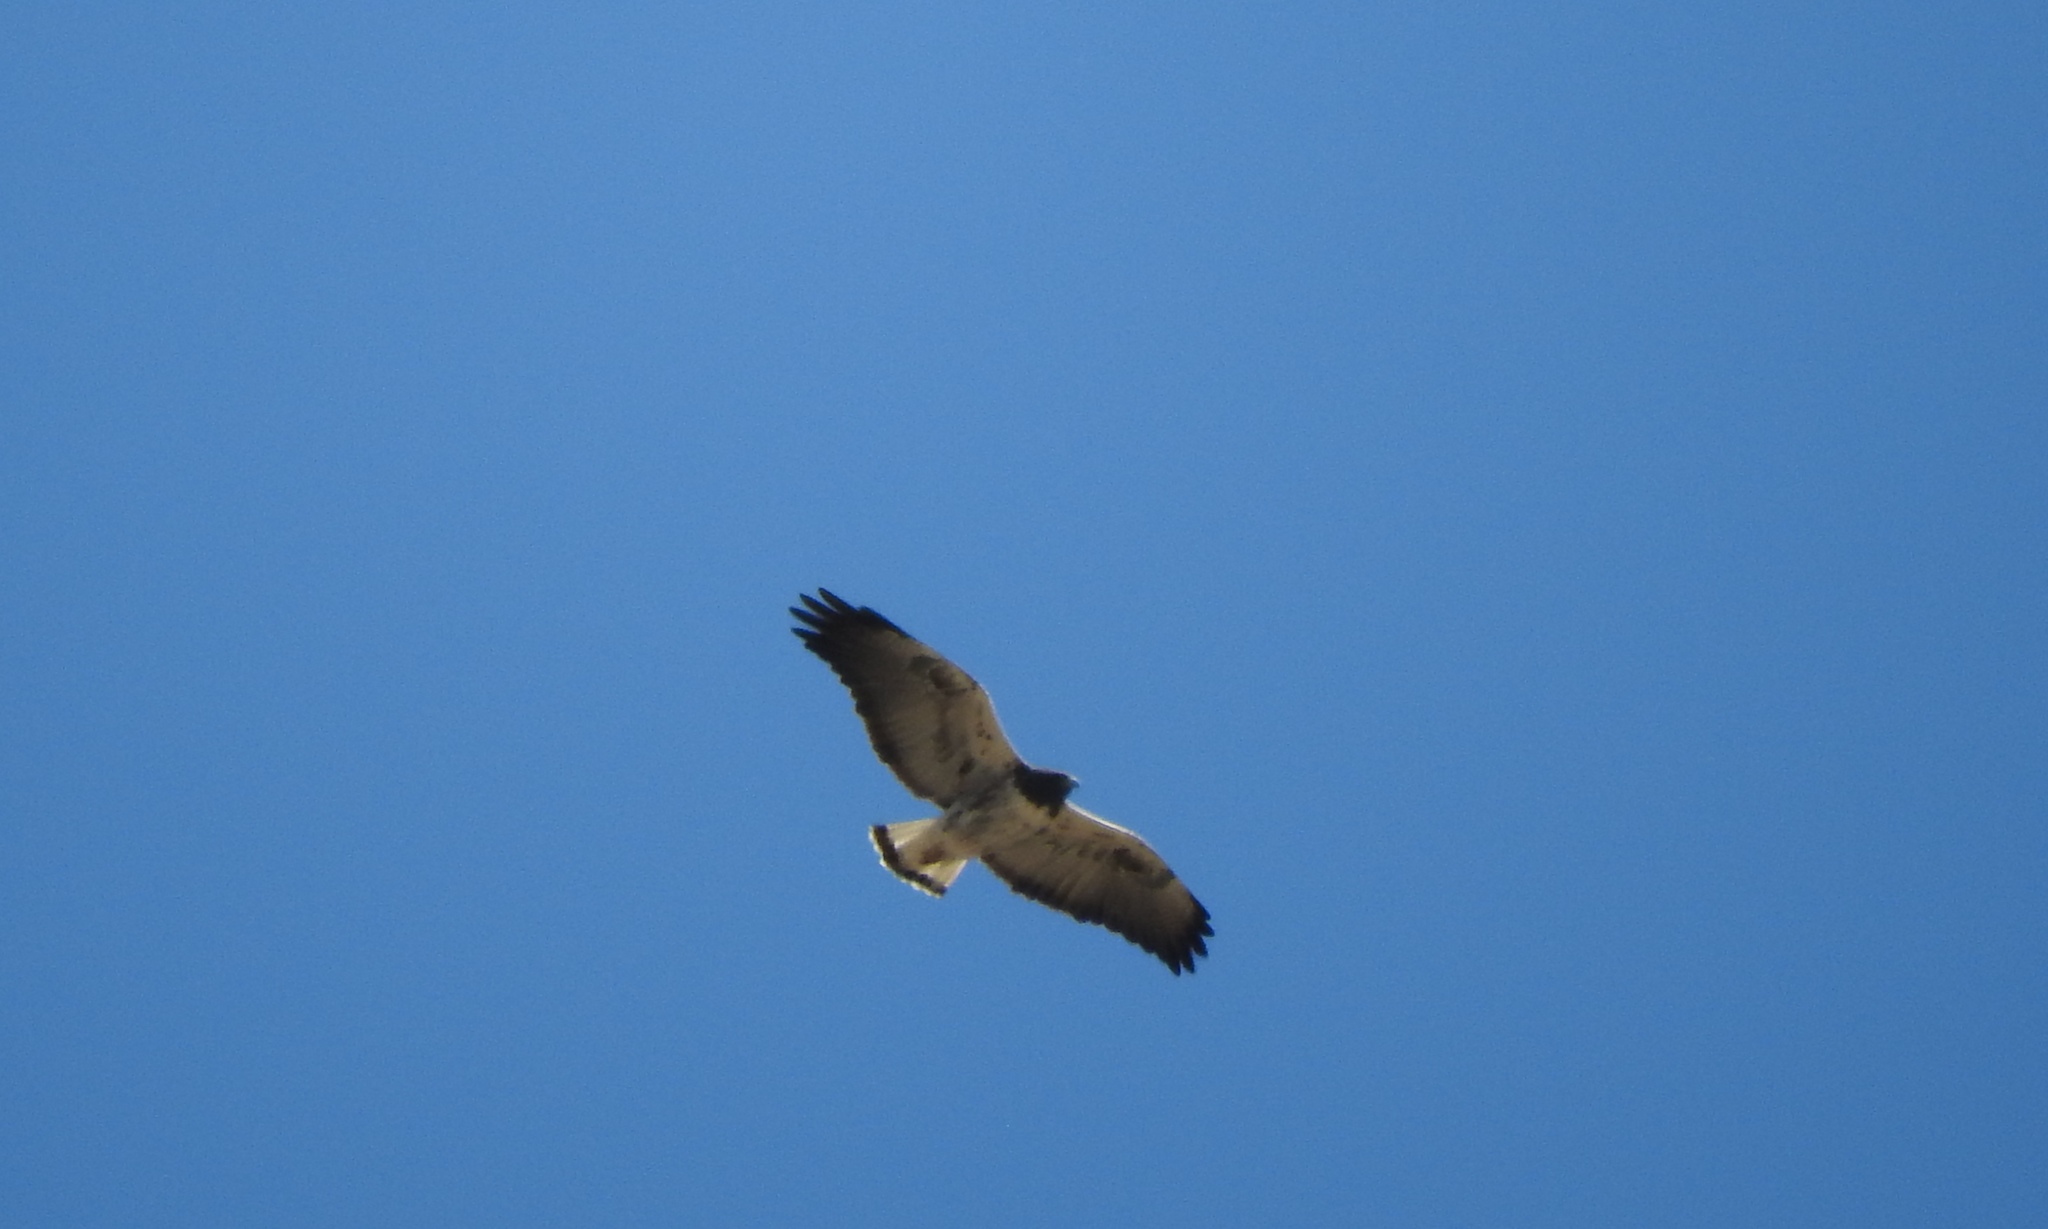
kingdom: Animalia
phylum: Chordata
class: Aves
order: Accipitriformes
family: Accipitridae
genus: Buteo
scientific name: Buteo albicaudatus
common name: White-tailed hawk
